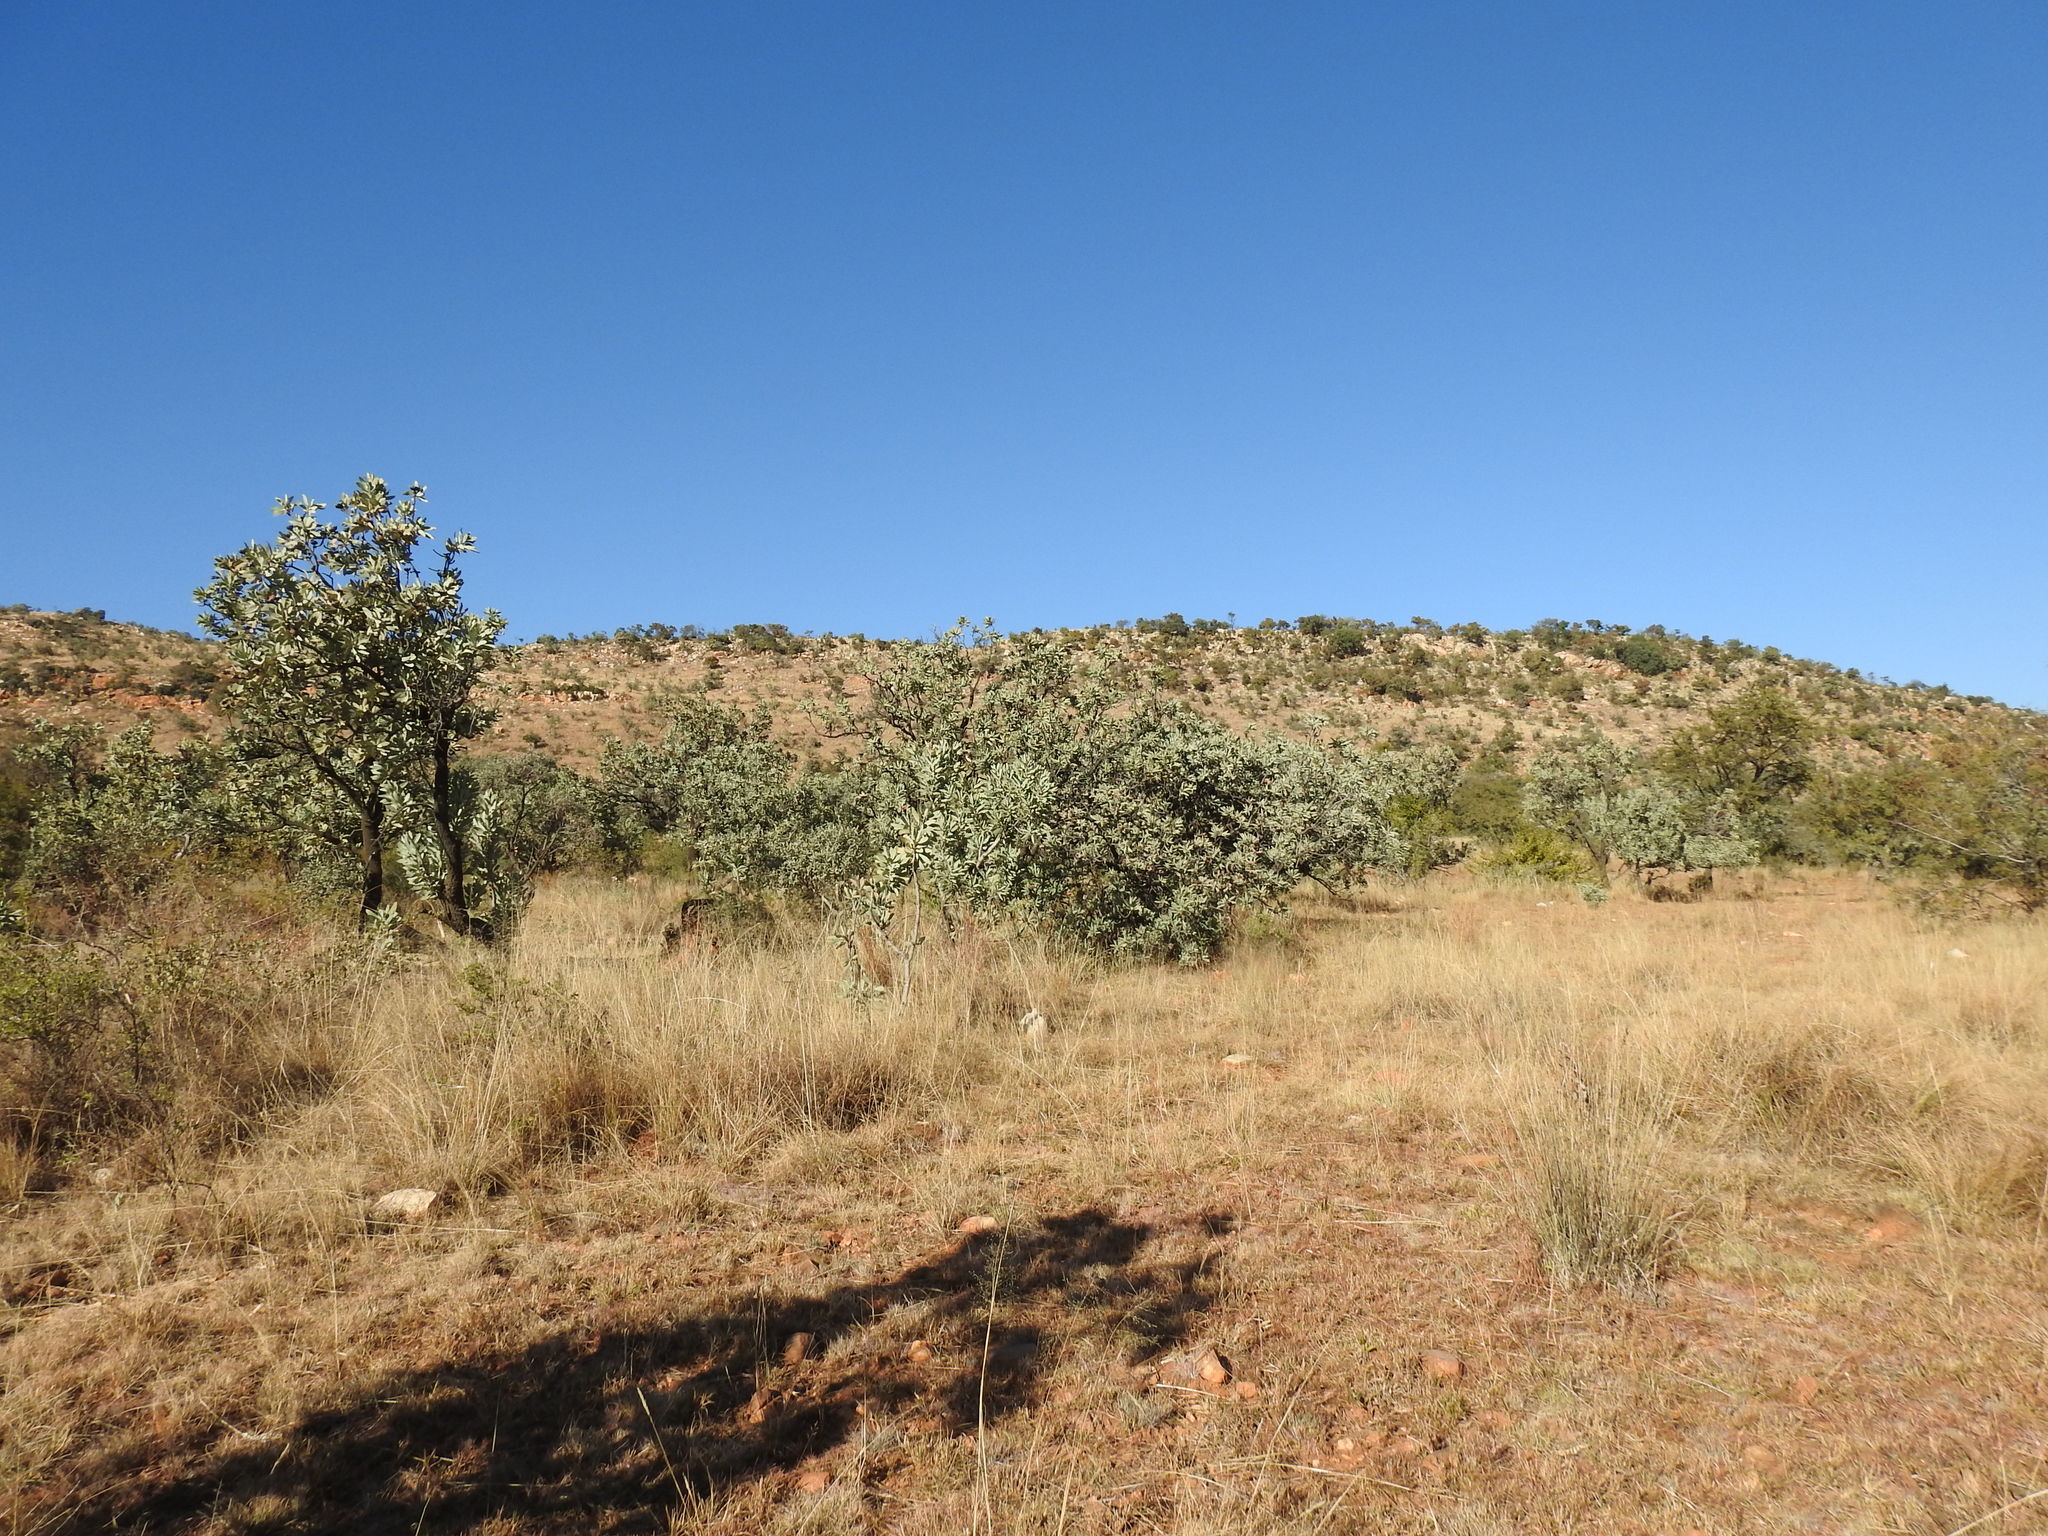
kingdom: Plantae
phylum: Tracheophyta
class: Magnoliopsida
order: Proteales
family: Proteaceae
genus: Protea
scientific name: Protea caffra
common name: Common sugarbush
